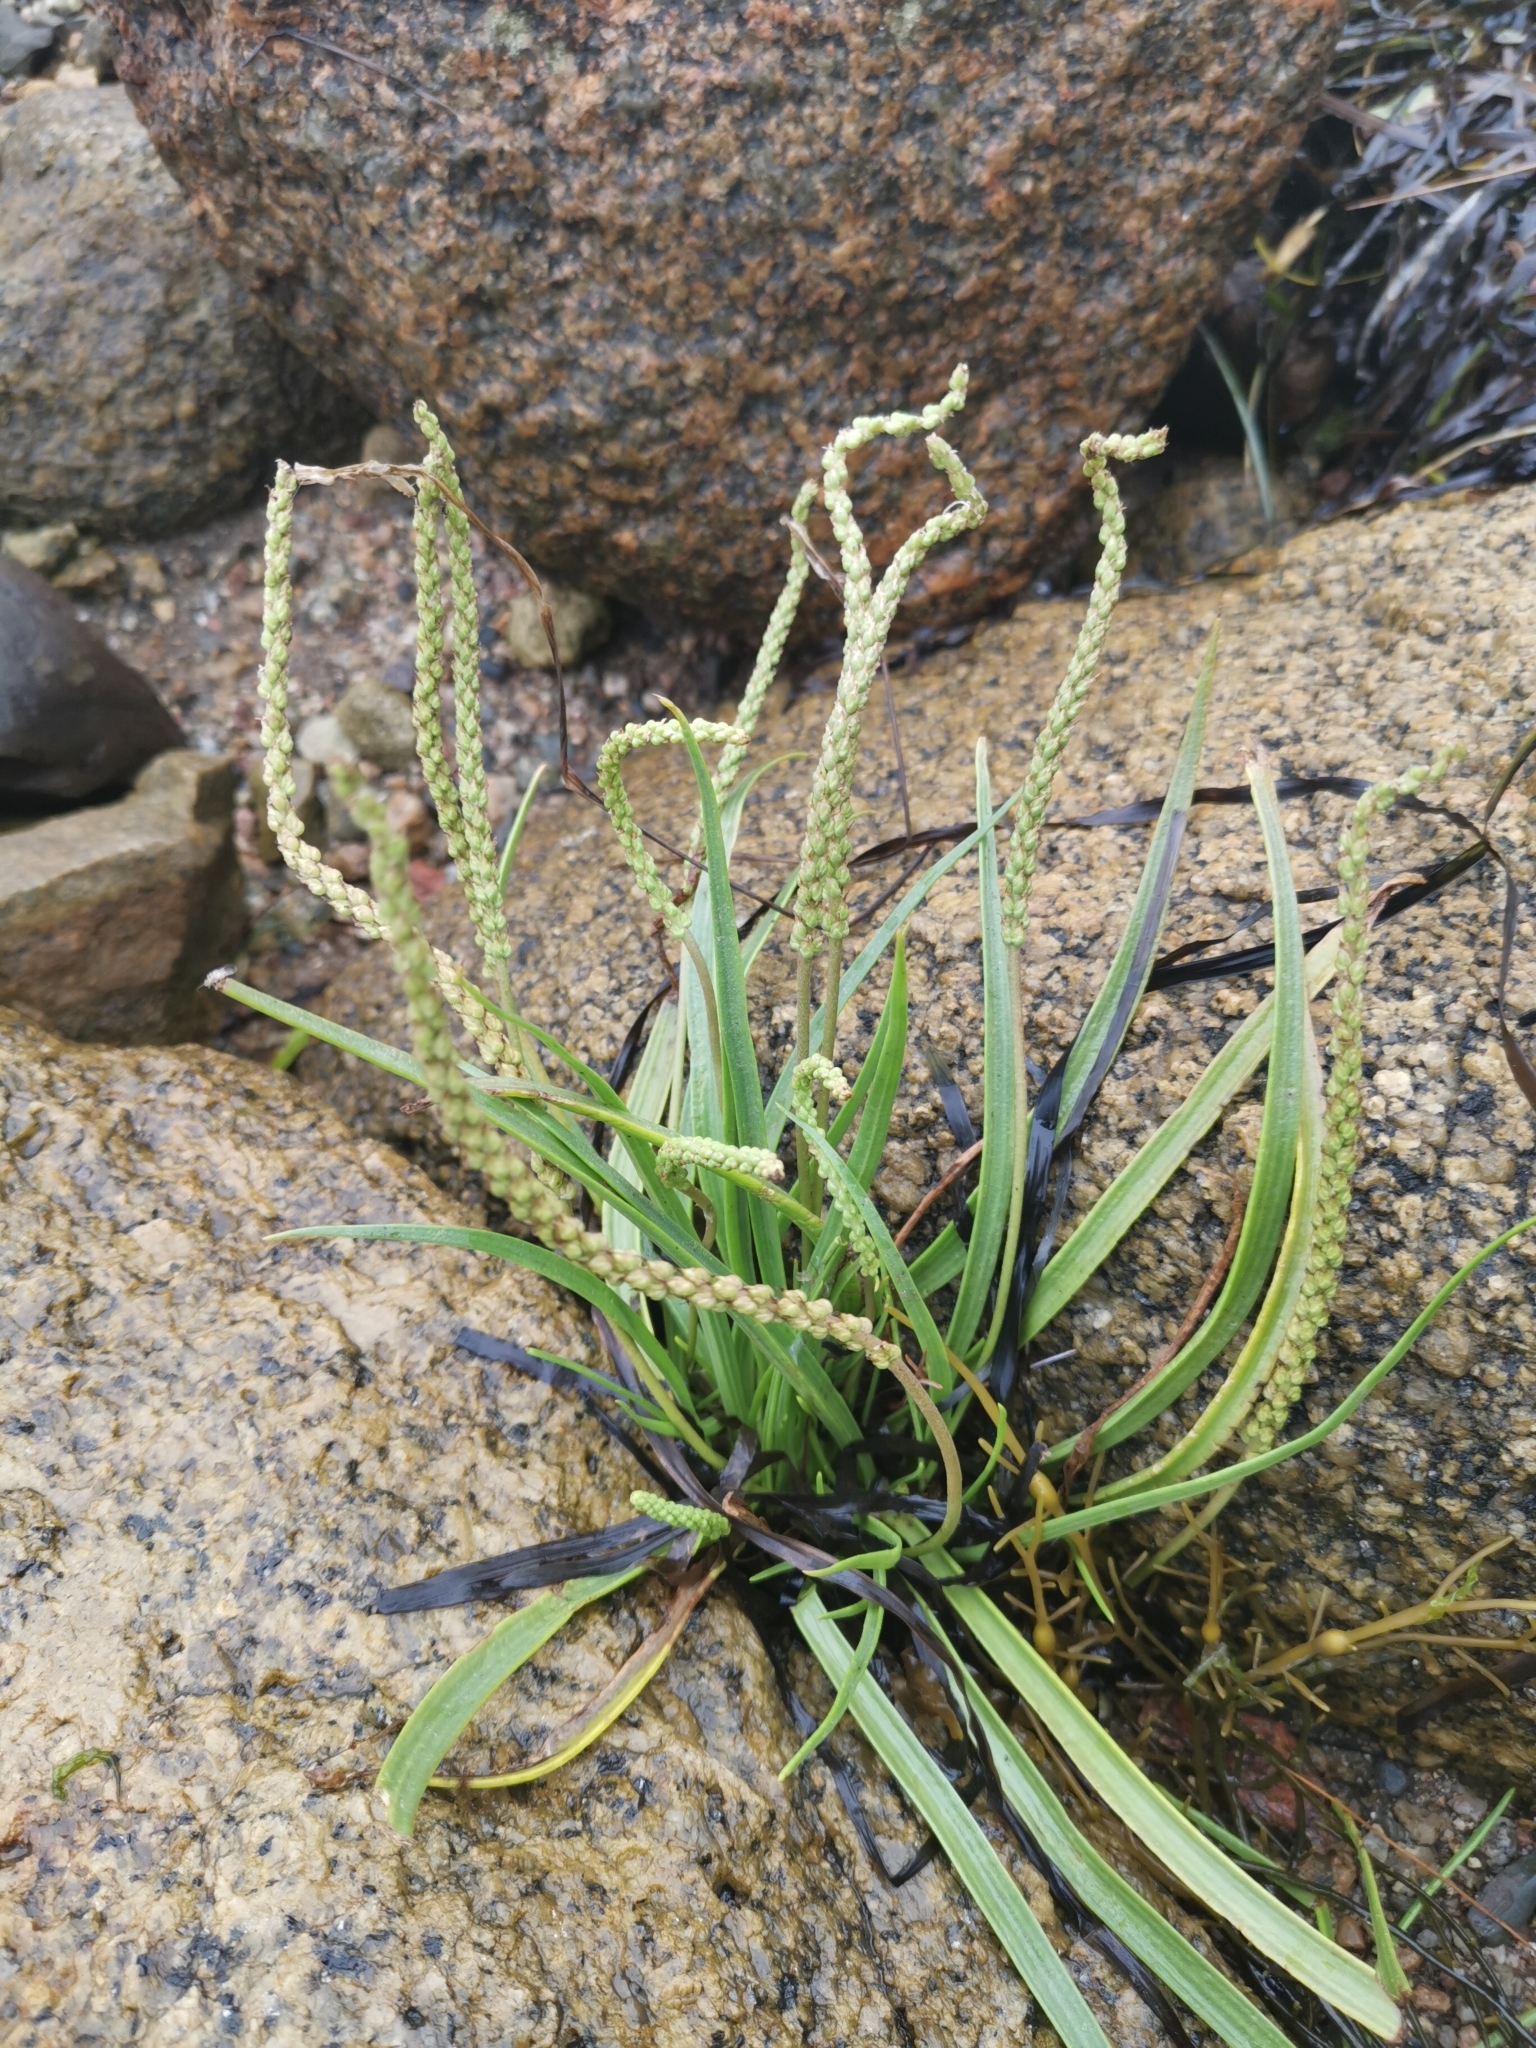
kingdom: Plantae
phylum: Tracheophyta
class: Magnoliopsida
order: Lamiales
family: Plantaginaceae
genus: Plantago
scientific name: Plantago maritima
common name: Sea plantain
